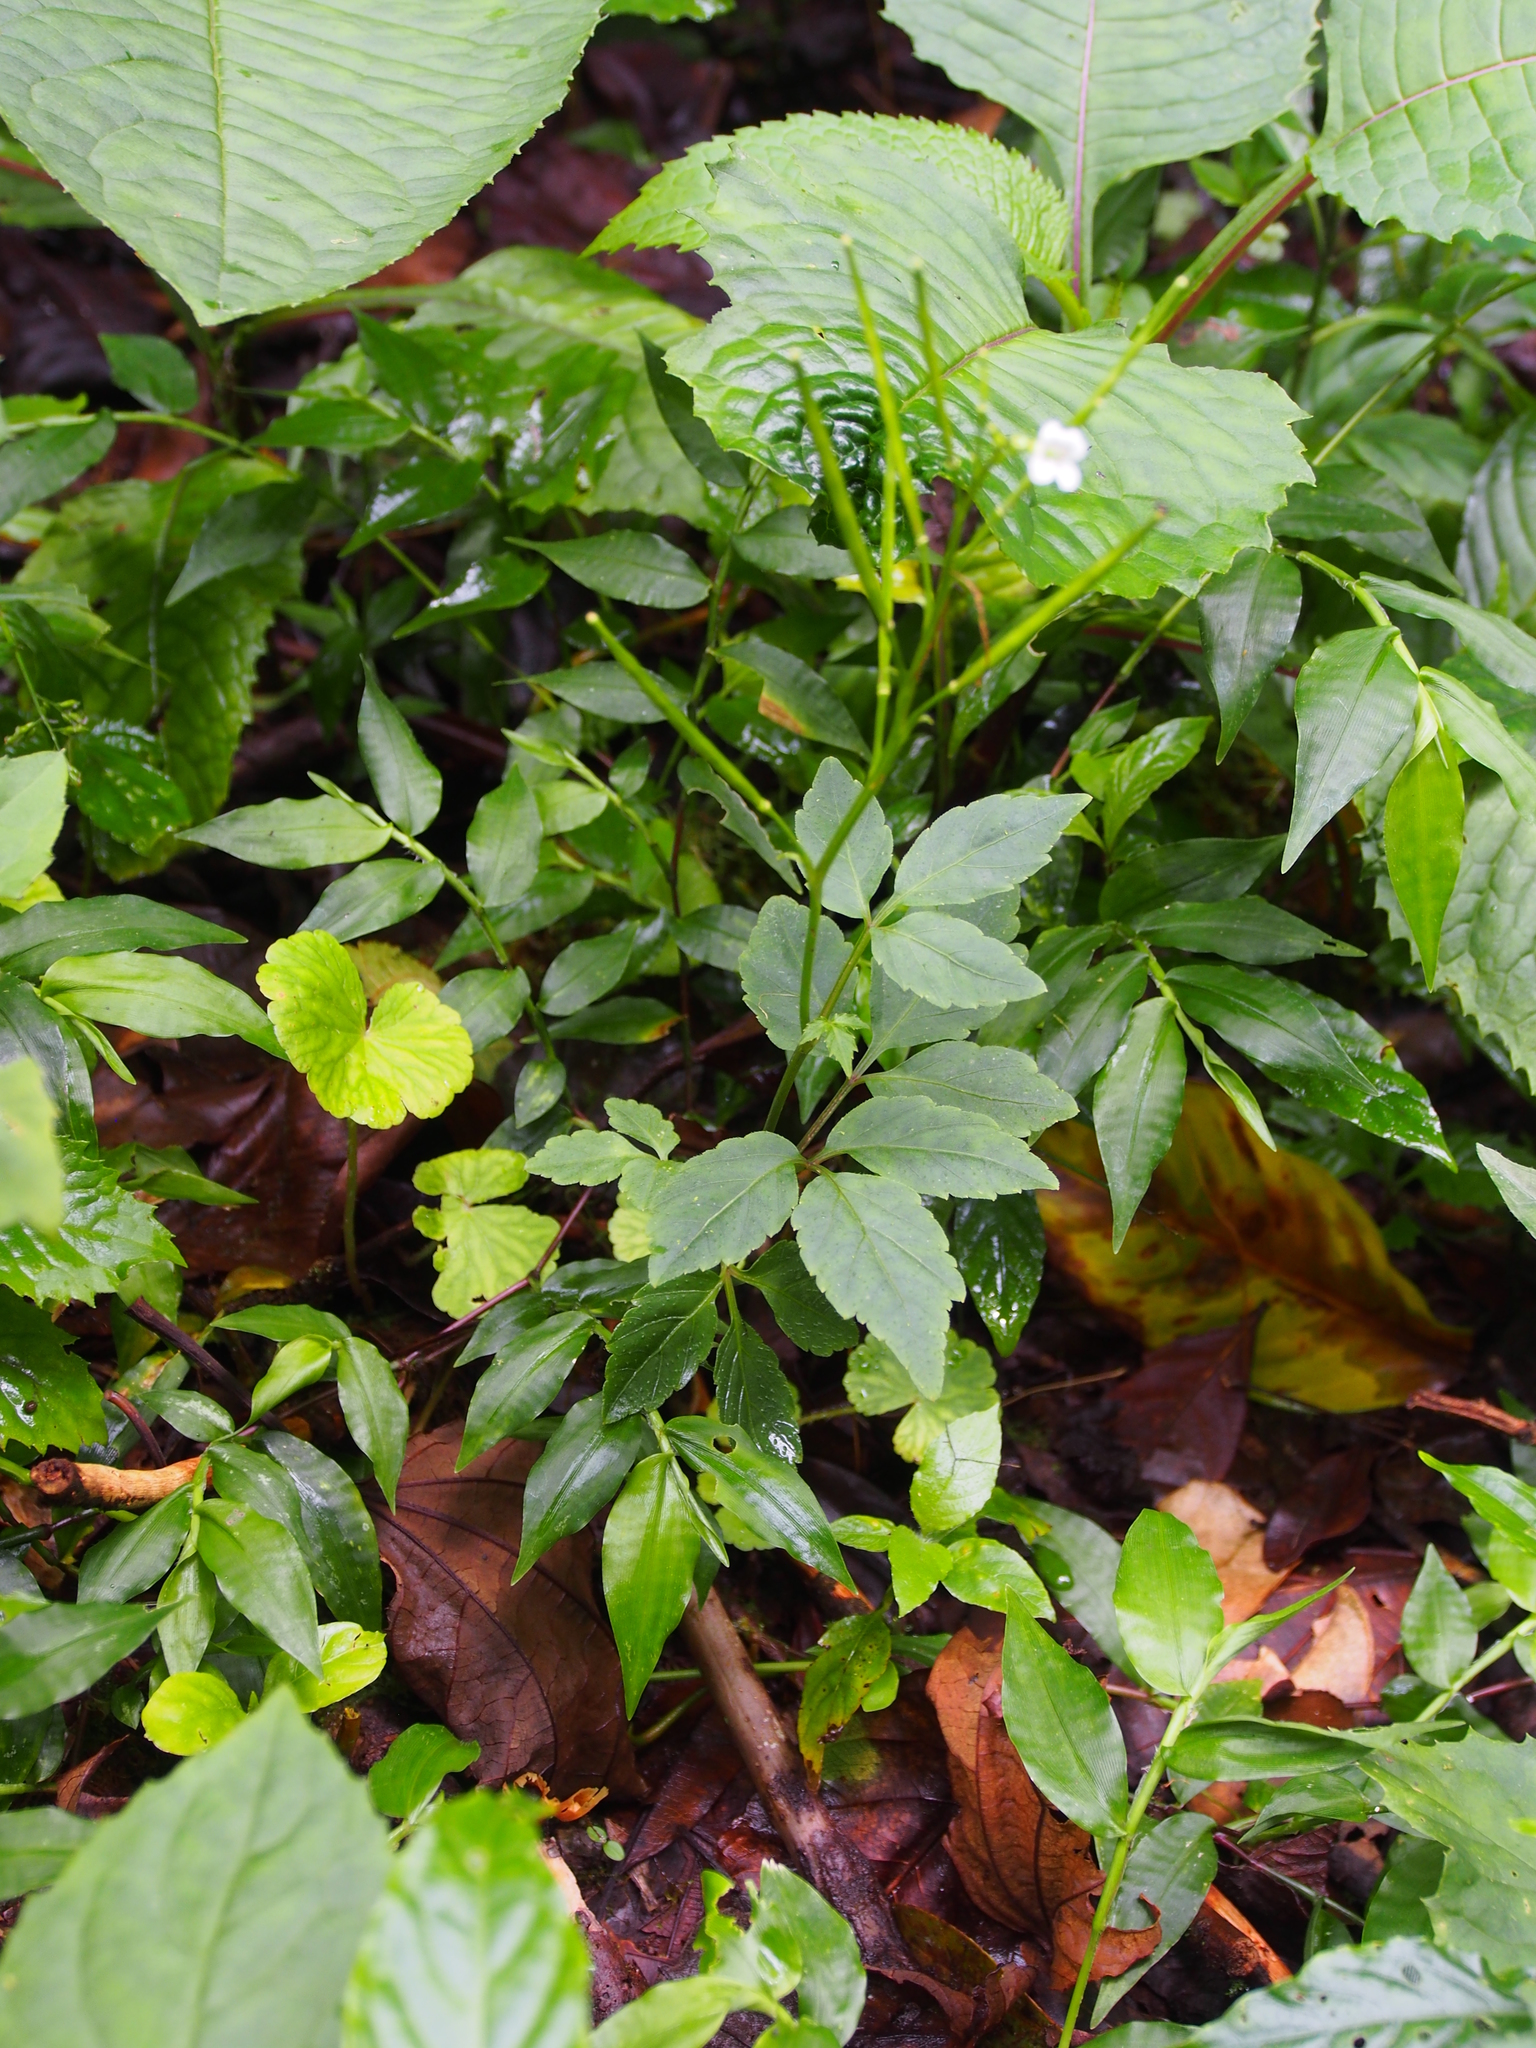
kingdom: Plantae
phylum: Tracheophyta
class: Magnoliopsida
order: Brassicales
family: Brassicaceae
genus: Cardamine
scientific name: Cardamine fulcrata
